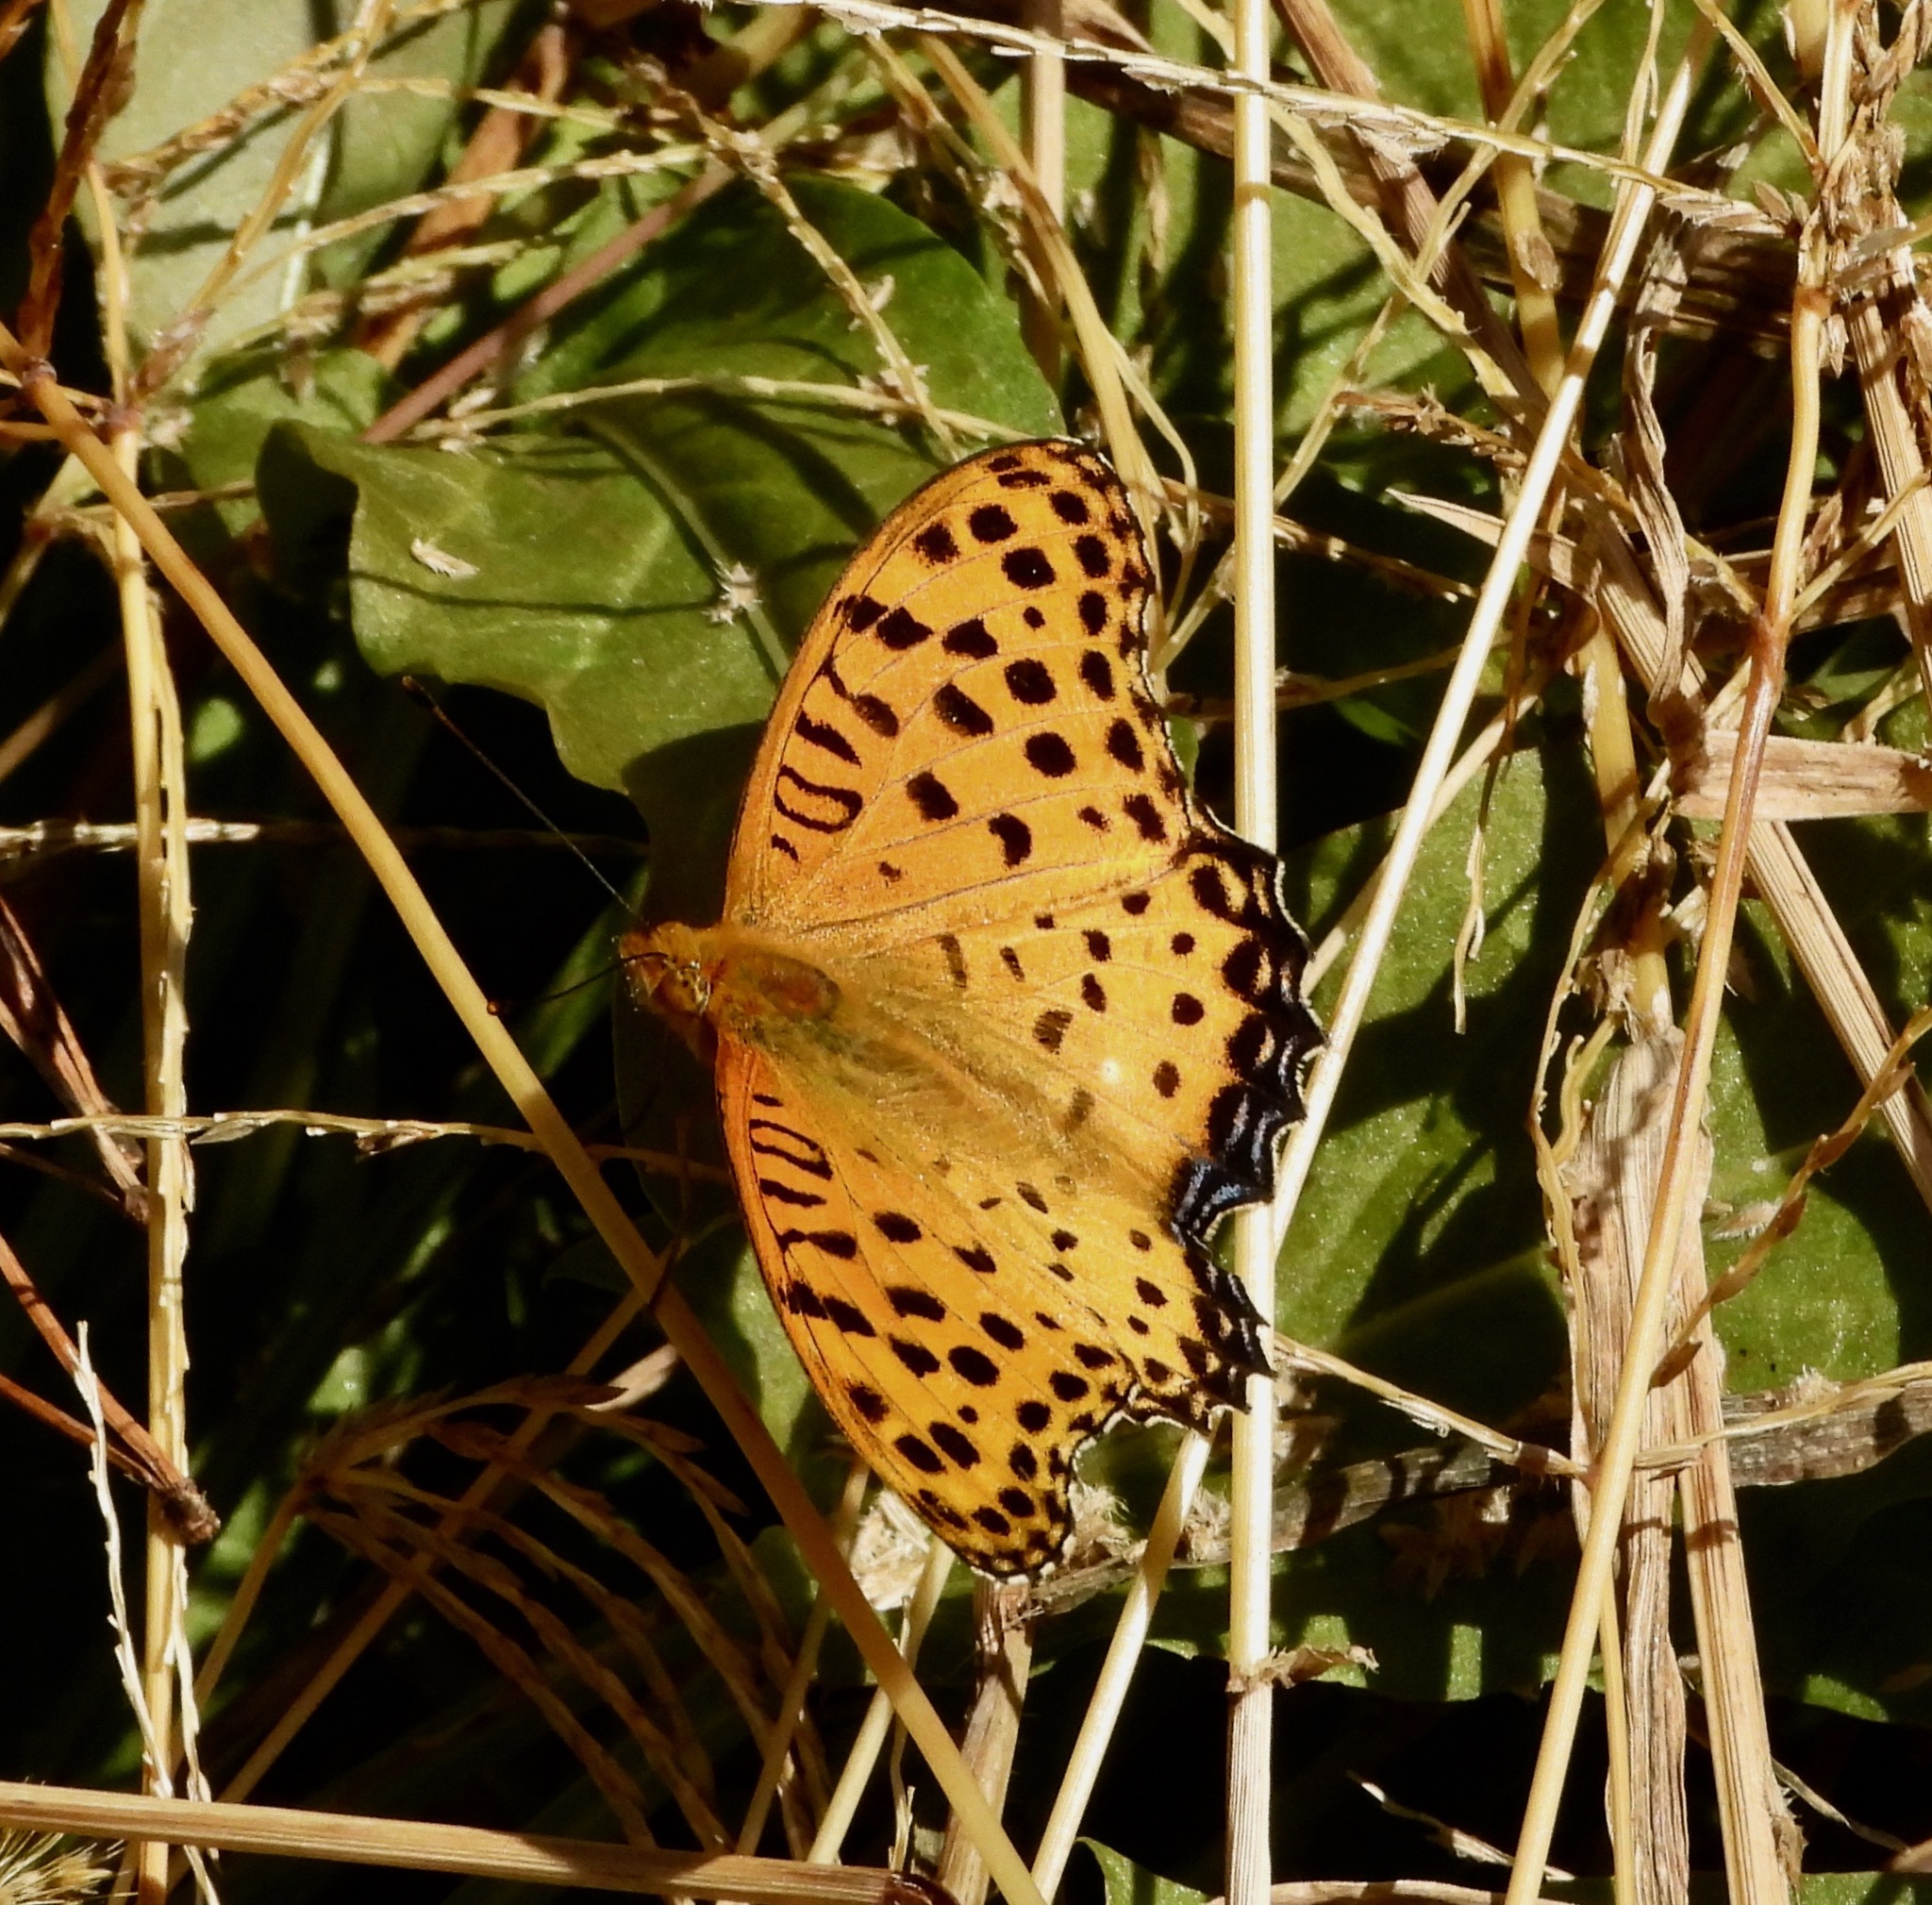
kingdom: Animalia
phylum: Arthropoda
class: Insecta
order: Lepidoptera
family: Nymphalidae
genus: Argynnis
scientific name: Argynnis hyperbius
